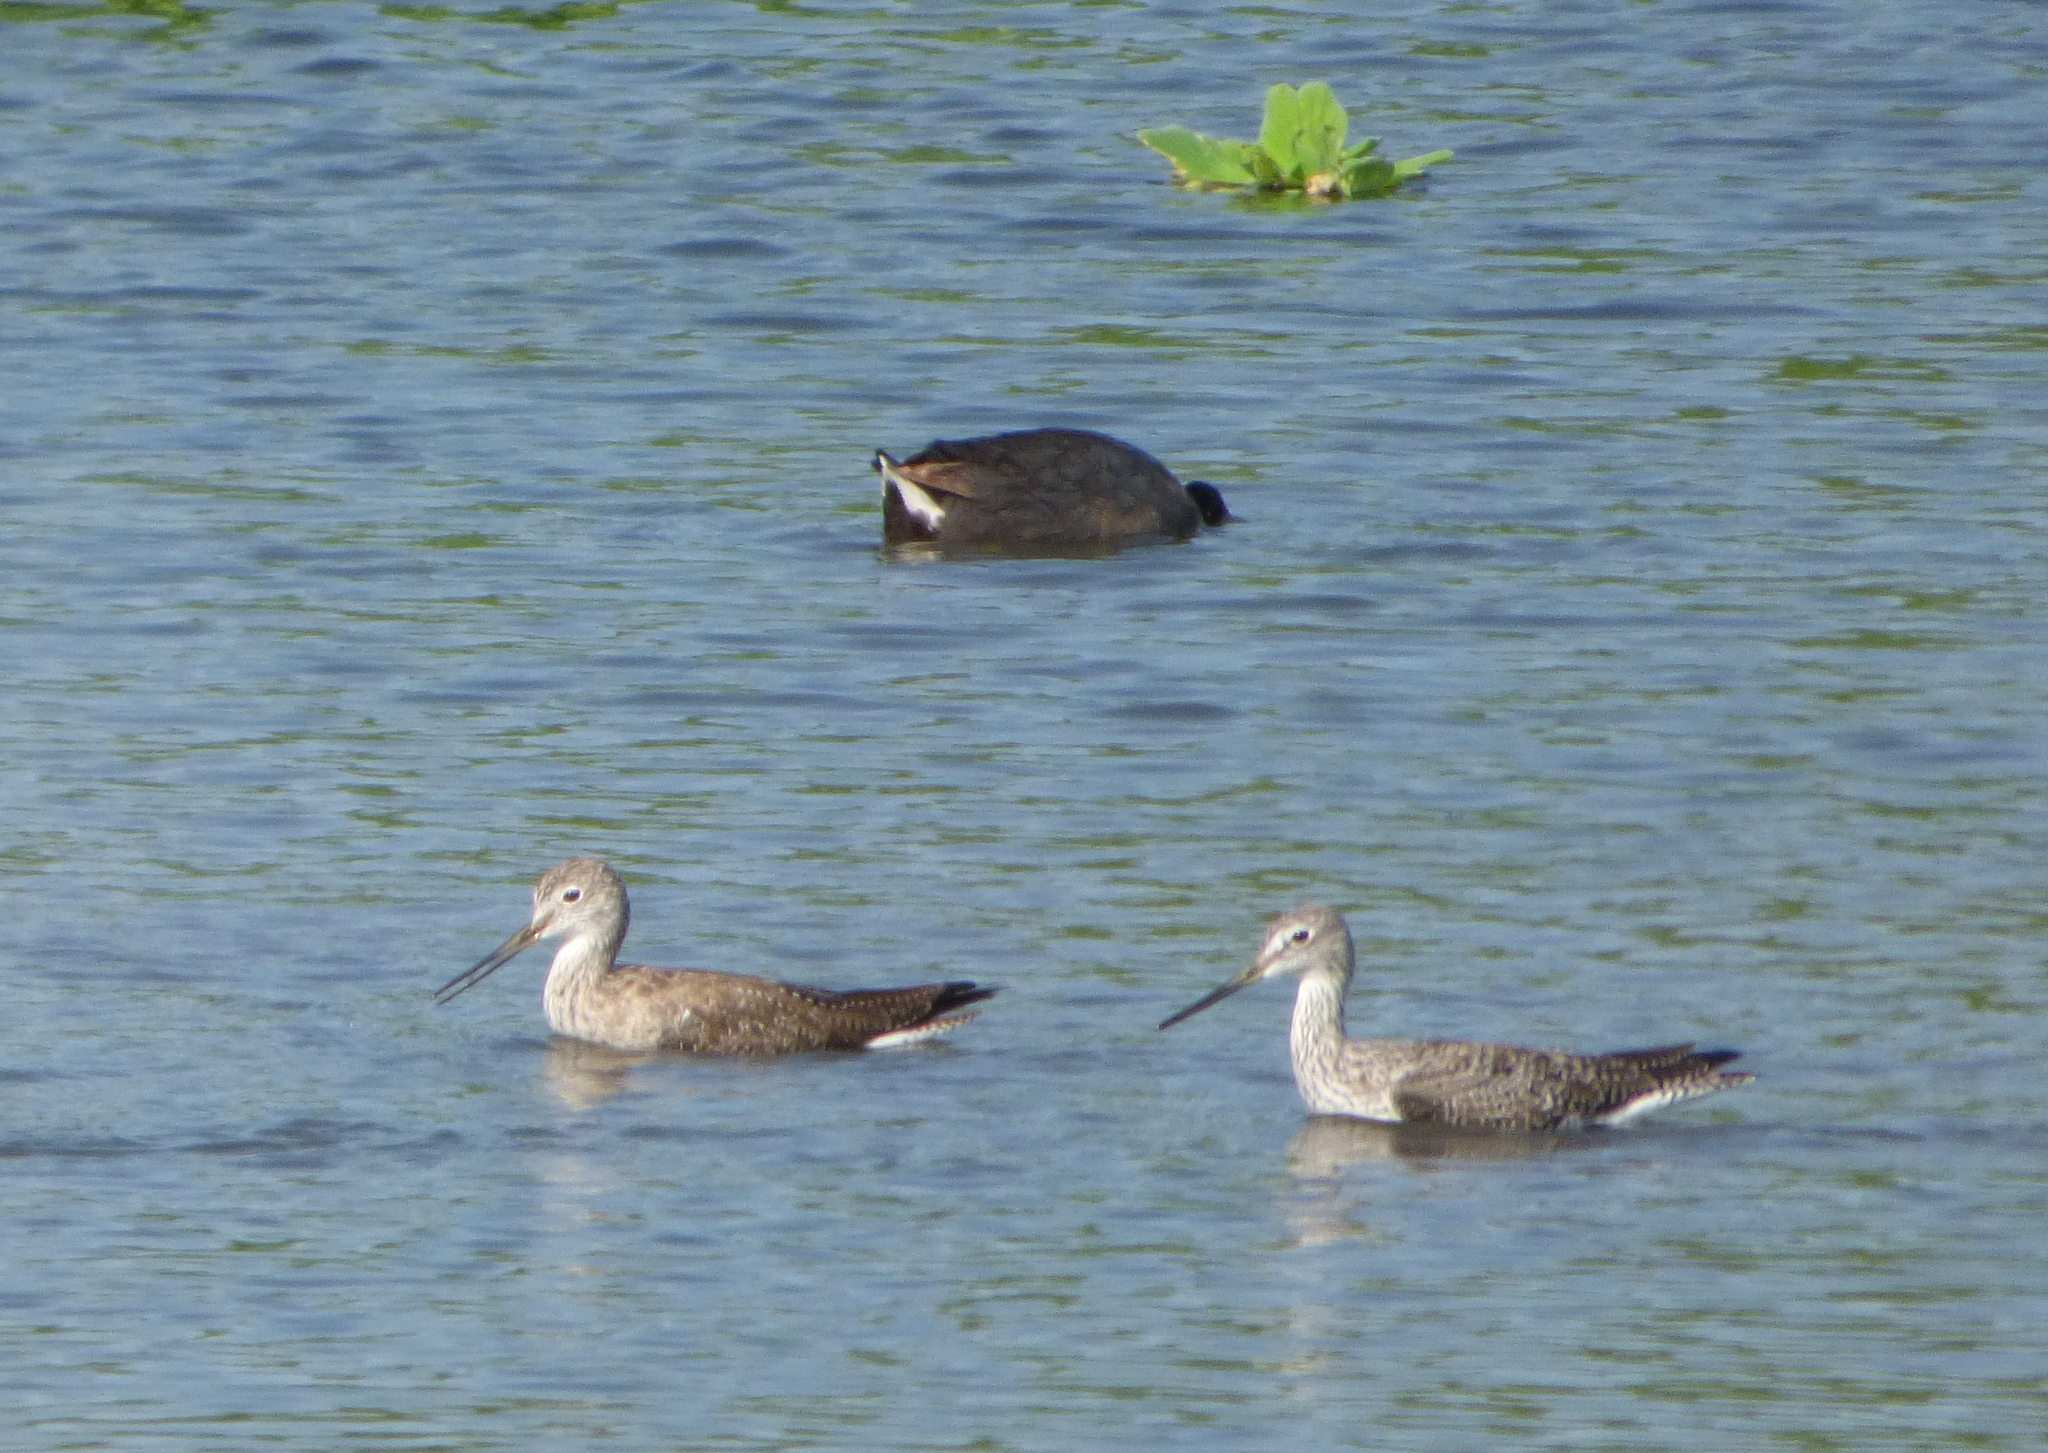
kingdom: Animalia
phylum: Chordata
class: Aves
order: Charadriiformes
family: Scolopacidae
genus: Tringa
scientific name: Tringa melanoleuca
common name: Greater yellowlegs
